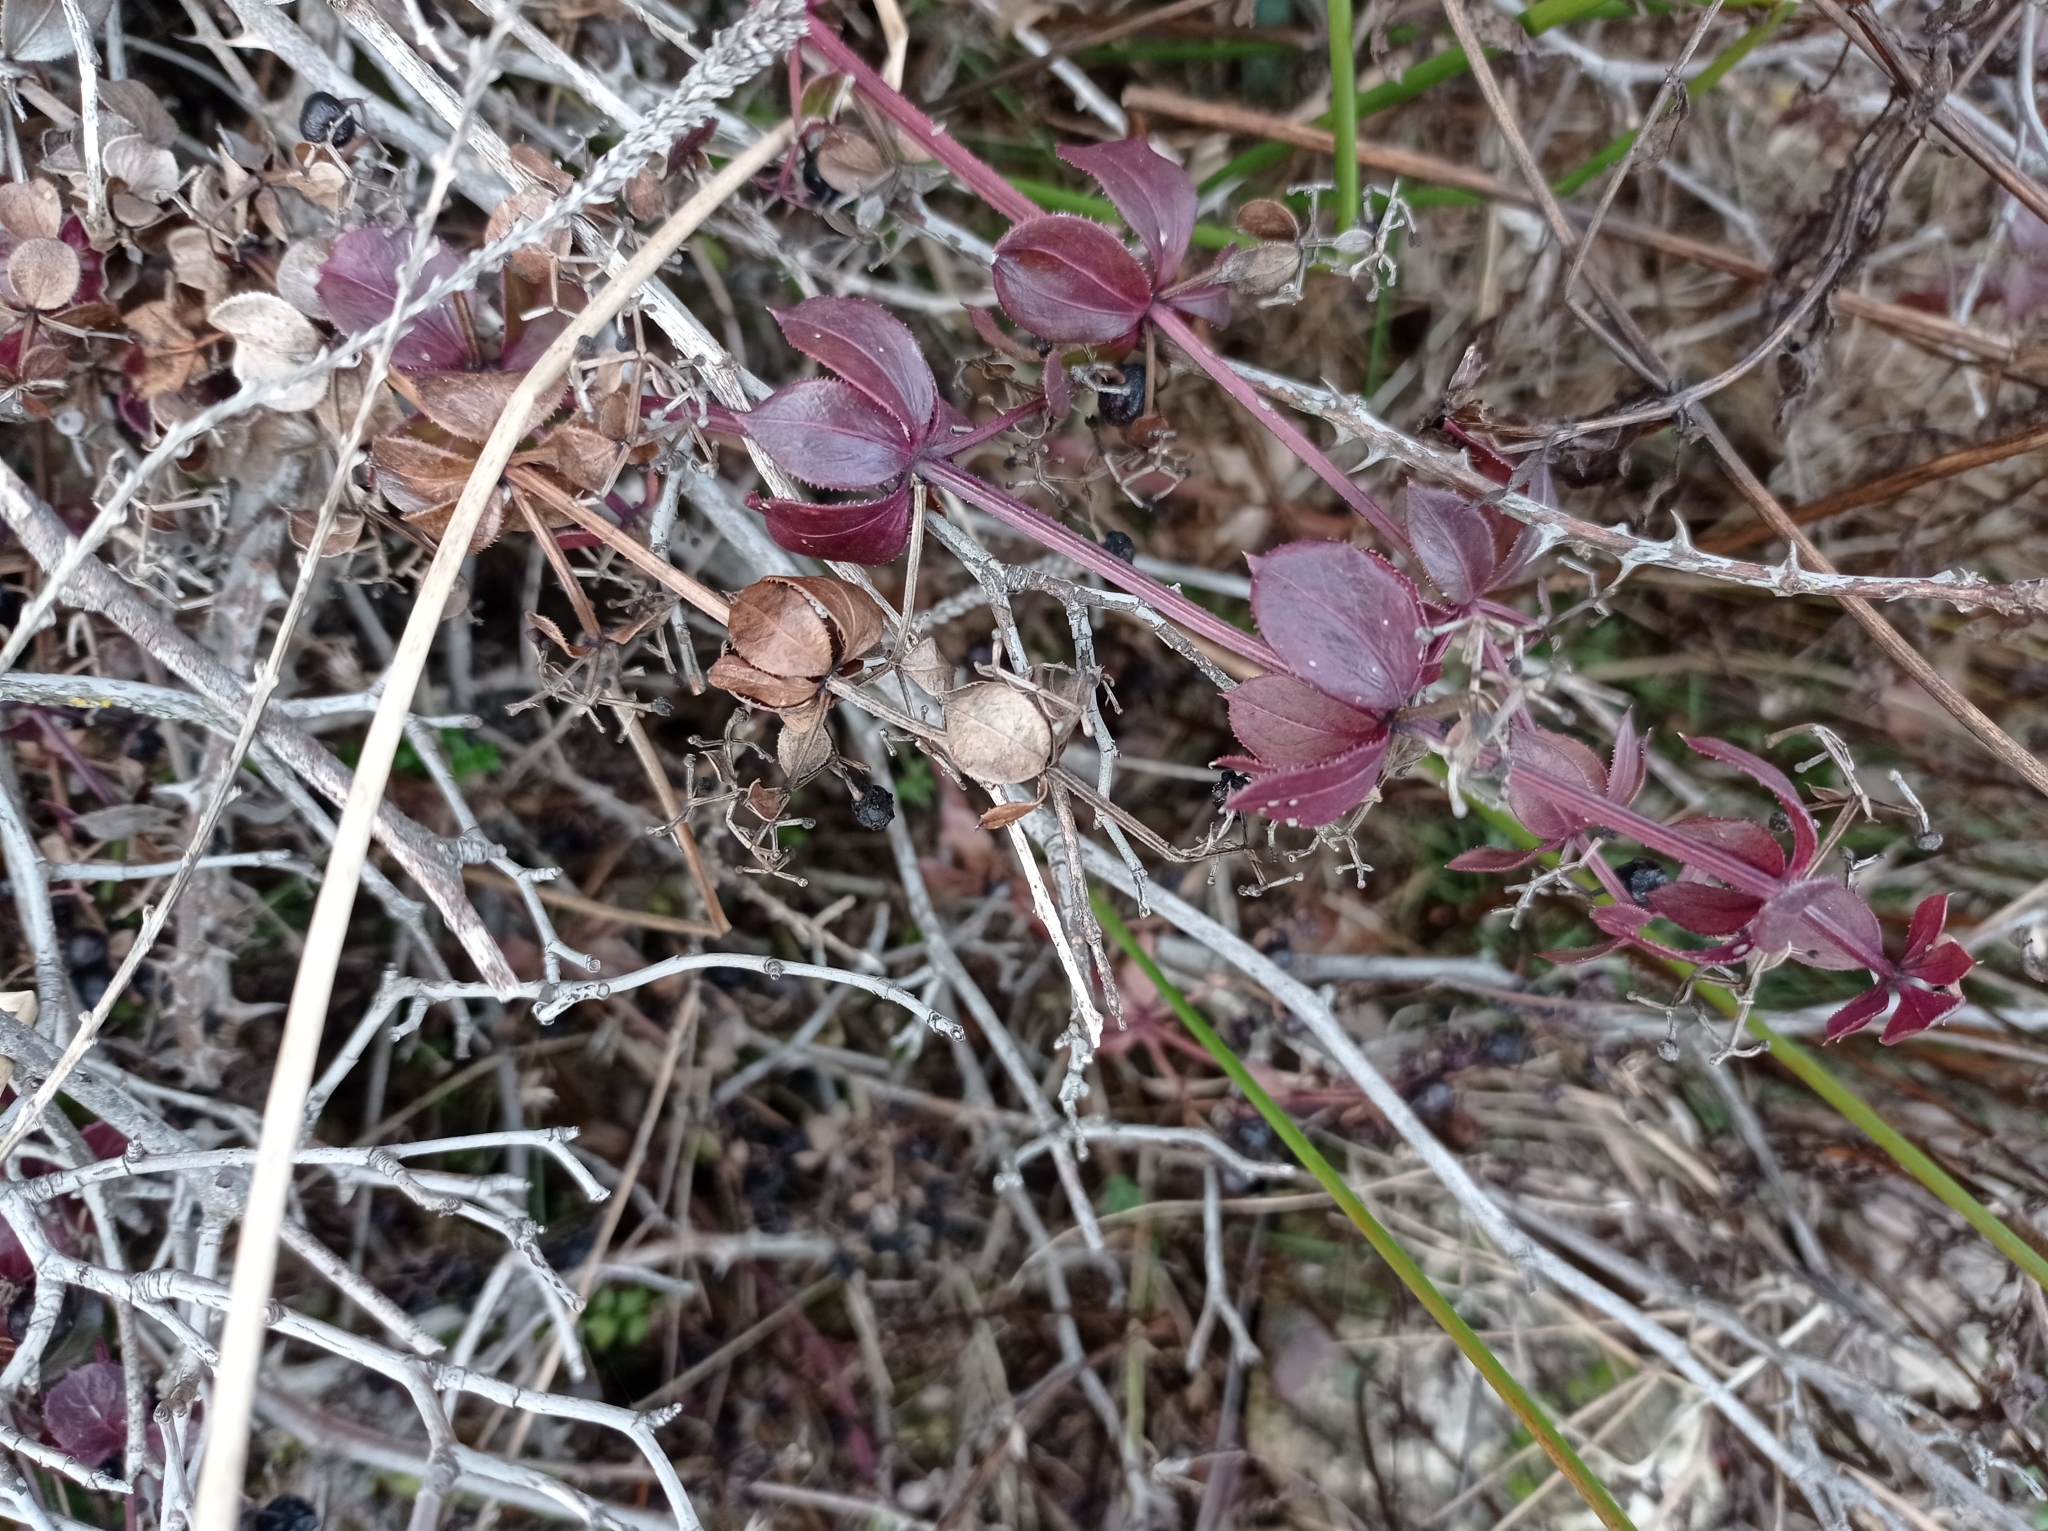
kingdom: Plantae
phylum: Tracheophyta
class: Magnoliopsida
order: Gentianales
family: Rubiaceae
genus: Rubia
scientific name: Rubia peregrina
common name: Wild madder
